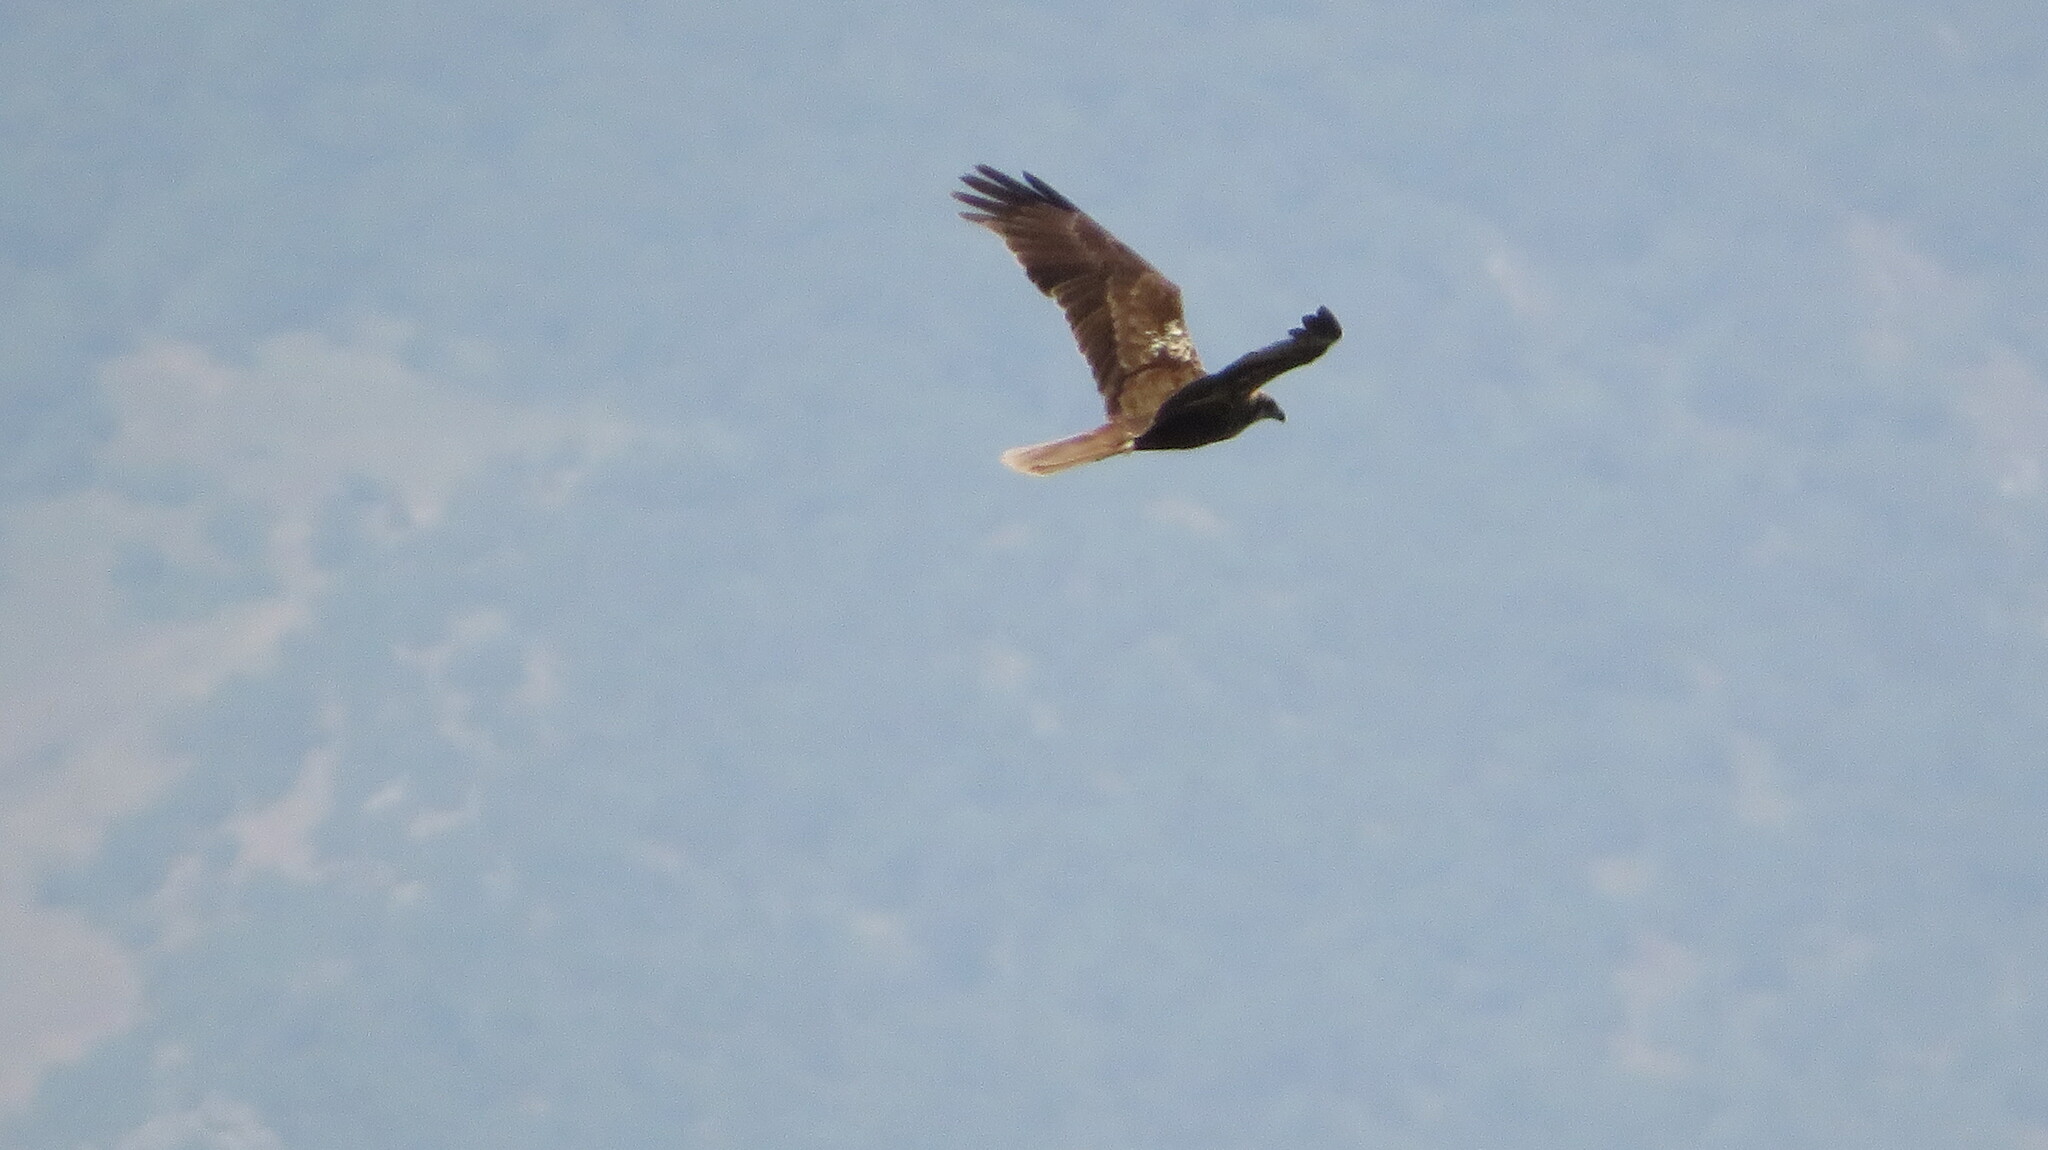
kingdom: Animalia
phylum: Chordata
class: Aves
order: Accipitriformes
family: Accipitridae
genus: Circus
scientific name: Circus aeruginosus
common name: Western marsh harrier
